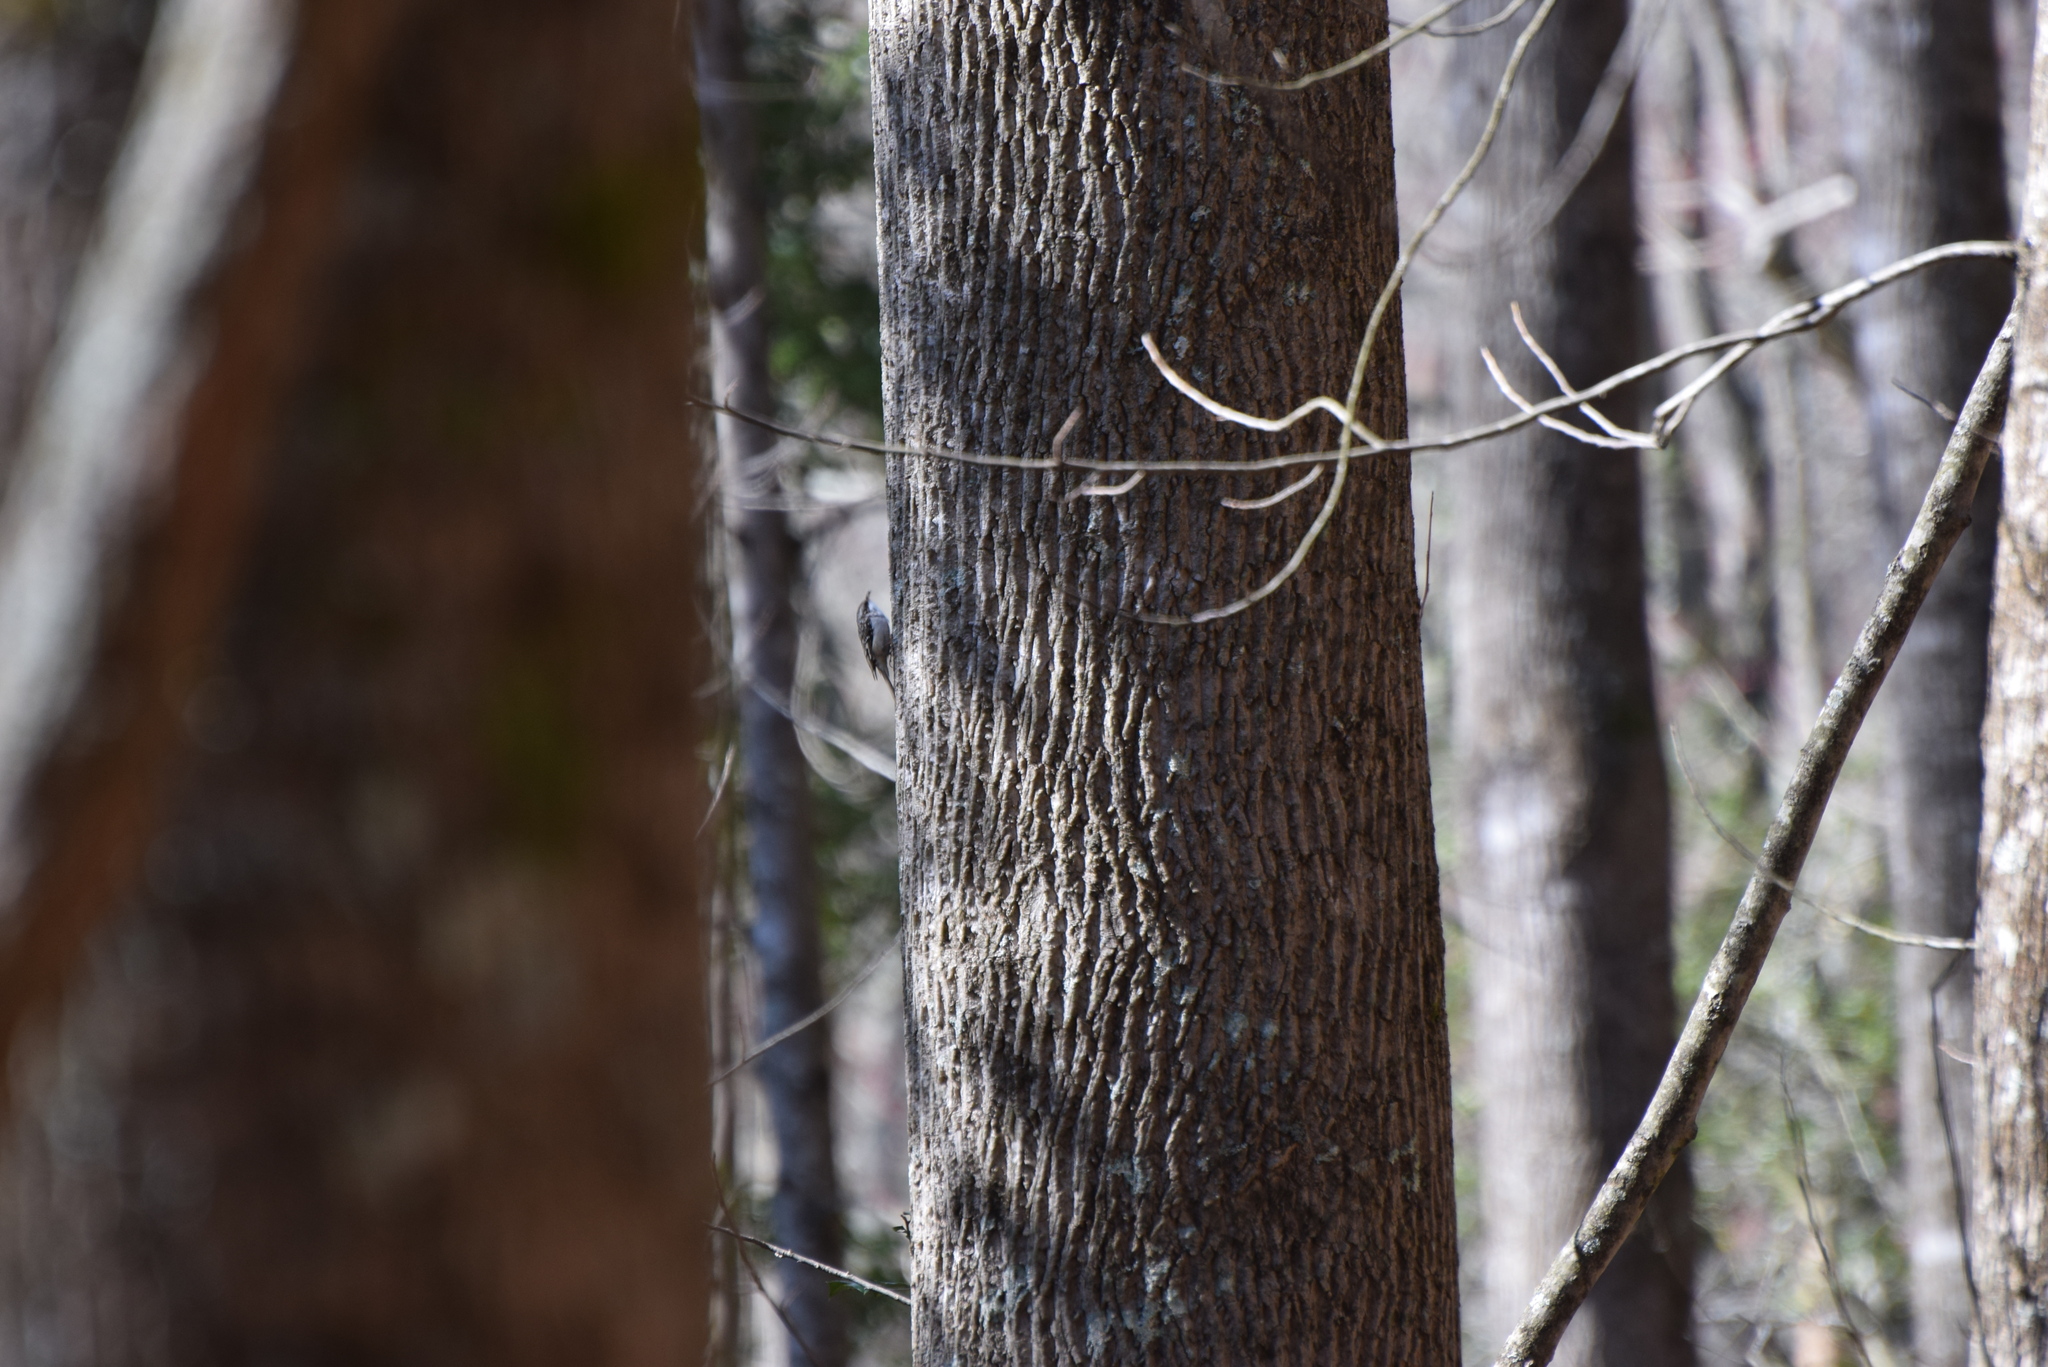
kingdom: Animalia
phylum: Chordata
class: Aves
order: Passeriformes
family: Certhiidae
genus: Certhia
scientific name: Certhia americana
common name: Brown creeper
